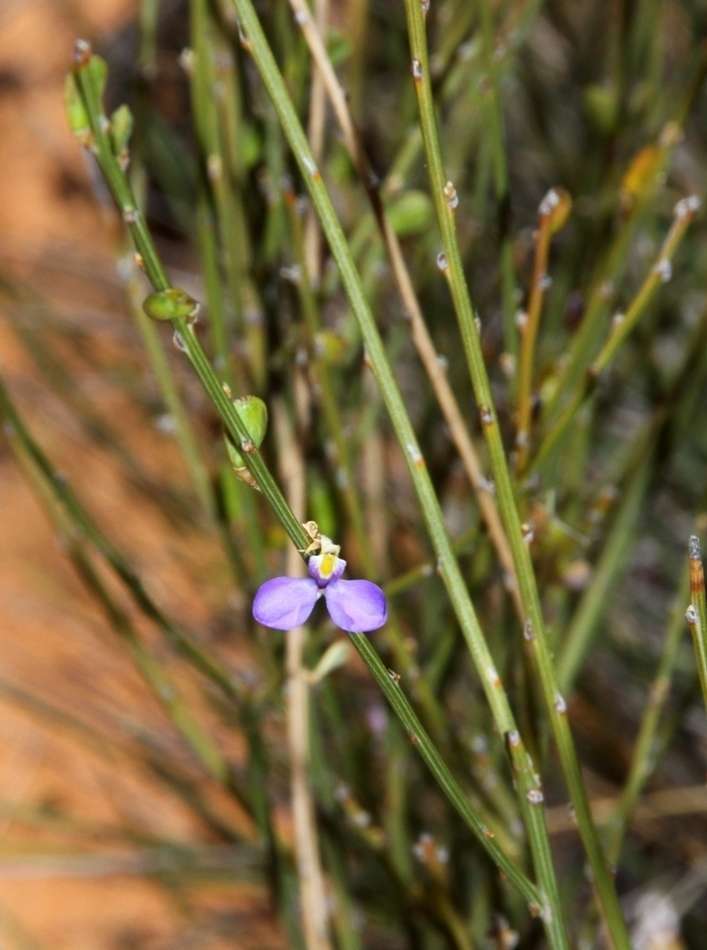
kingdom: Plantae
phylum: Tracheophyta
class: Magnoliopsida
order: Fabales
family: Polygalaceae
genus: Comesperma
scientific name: Comesperma scoparium
